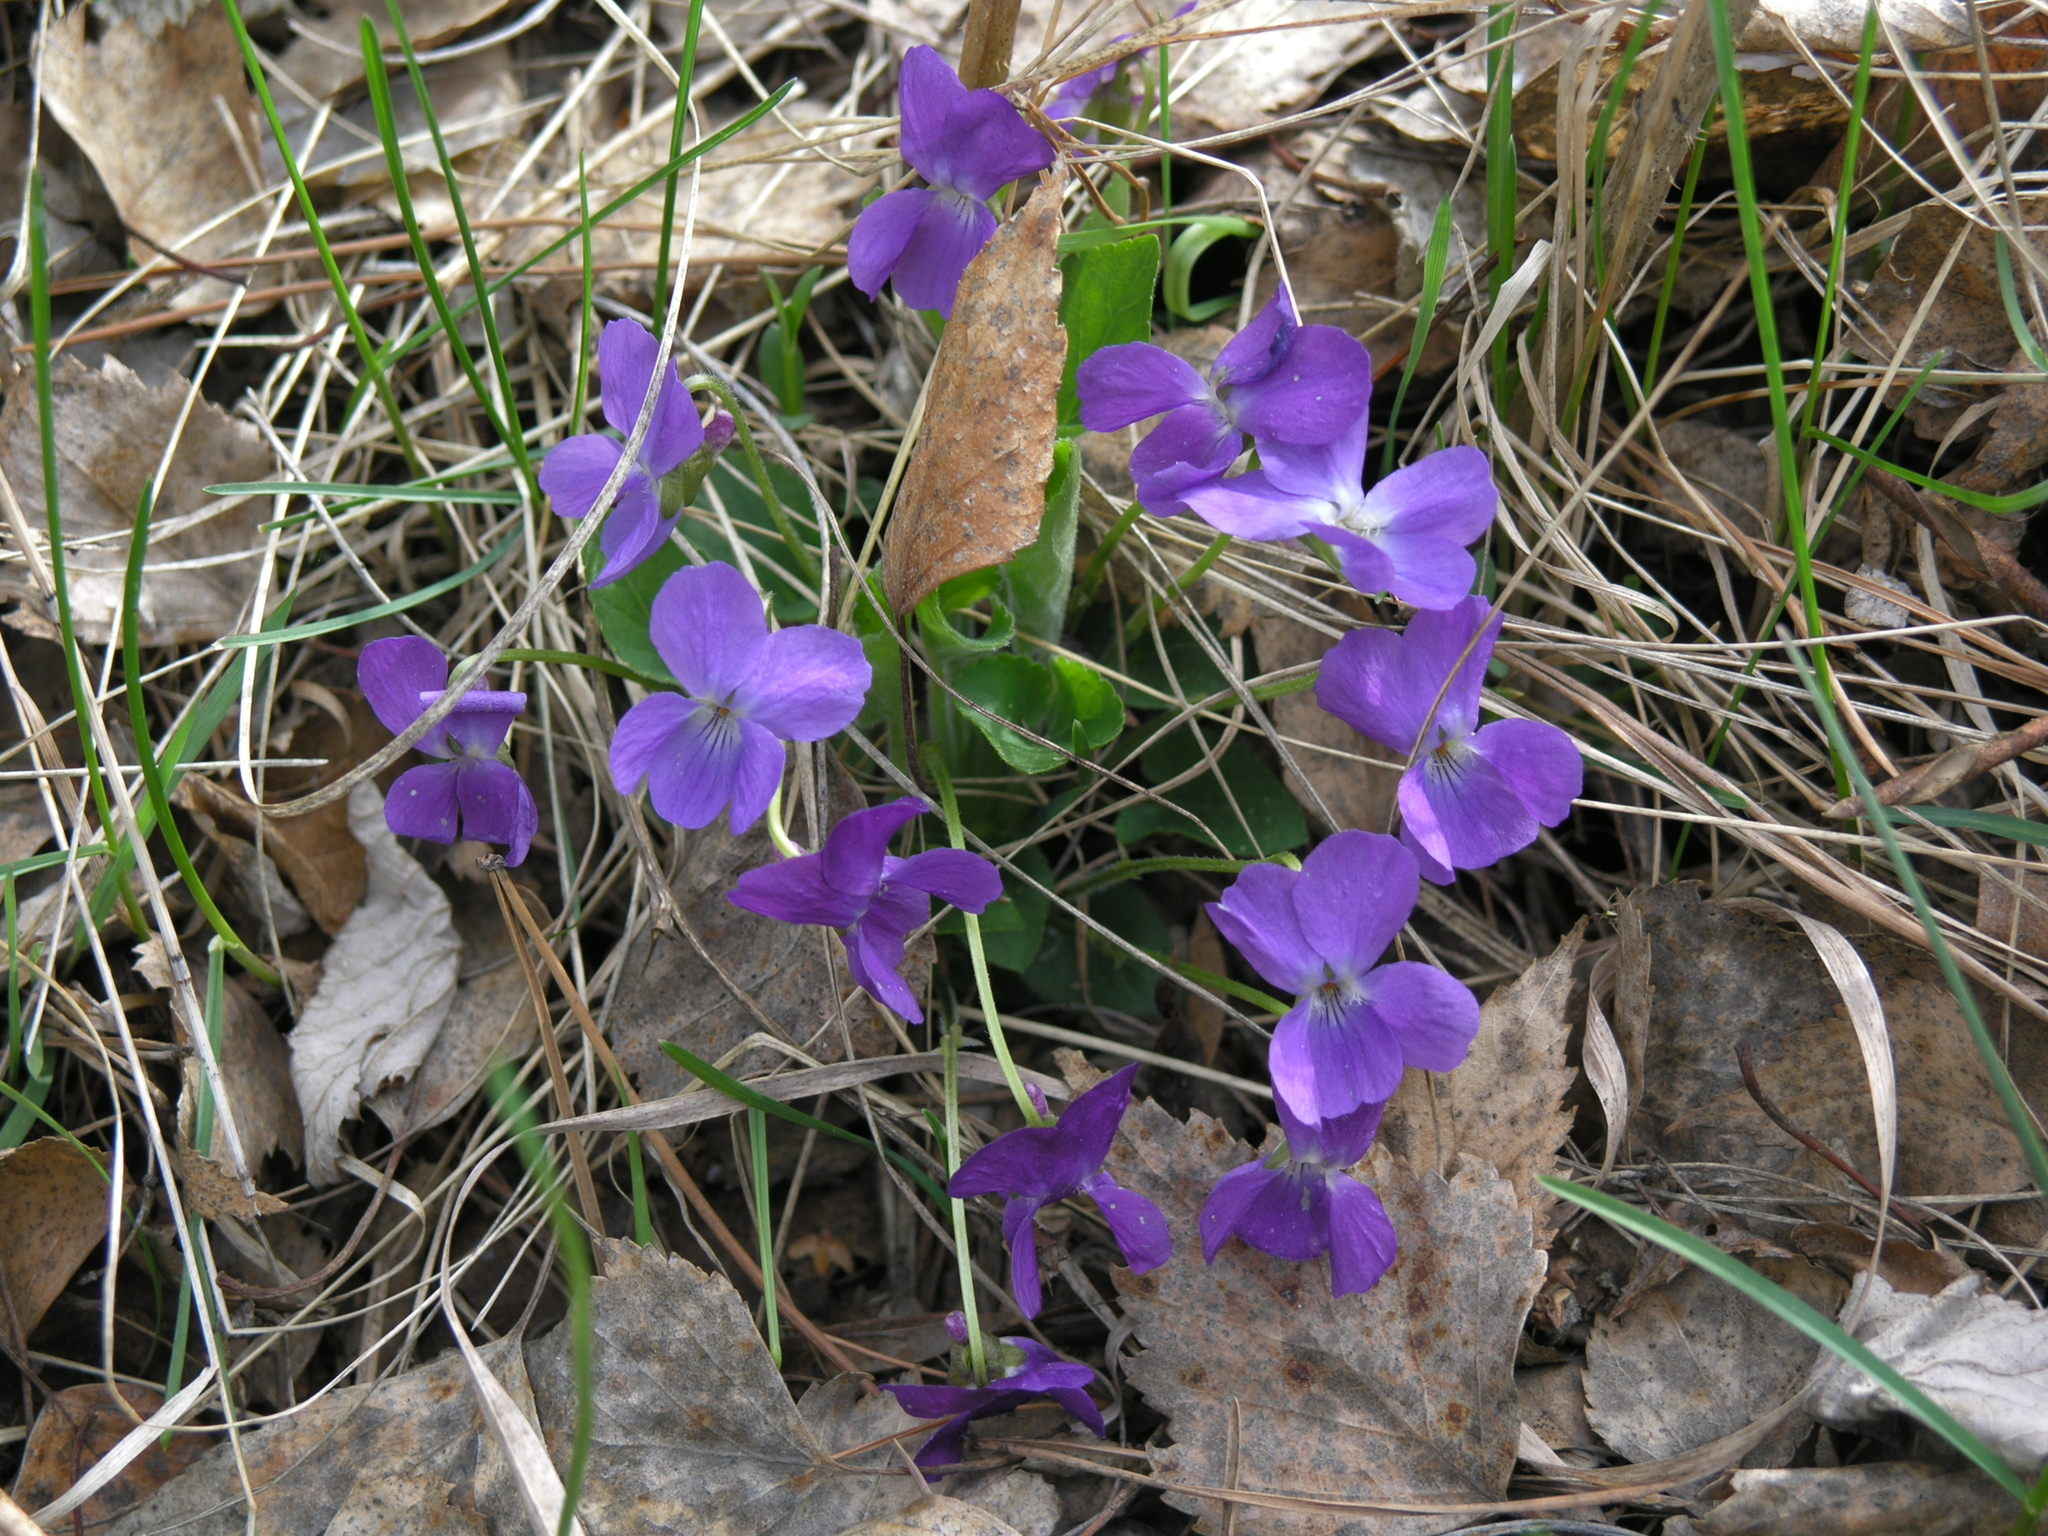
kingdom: Plantae
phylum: Tracheophyta
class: Magnoliopsida
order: Malpighiales
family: Violaceae
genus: Viola
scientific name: Viola hirta
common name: Hairy violet
